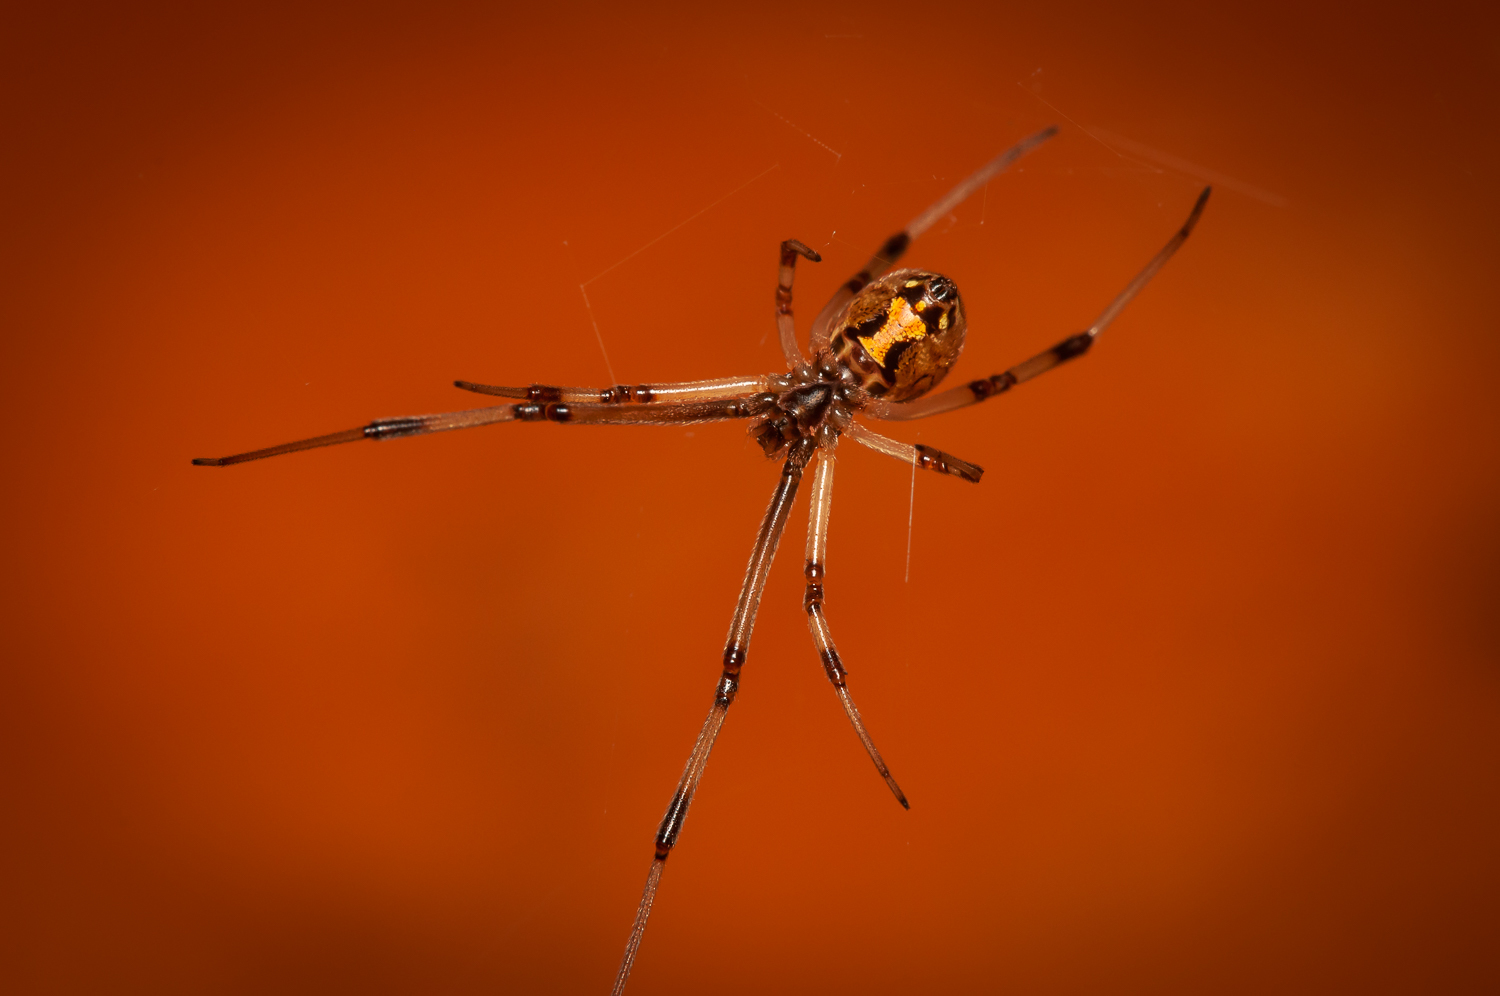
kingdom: Animalia
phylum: Arthropoda
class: Arachnida
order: Araneae
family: Theridiidae
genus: Latrodectus
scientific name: Latrodectus geometricus
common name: Brown widow spider
